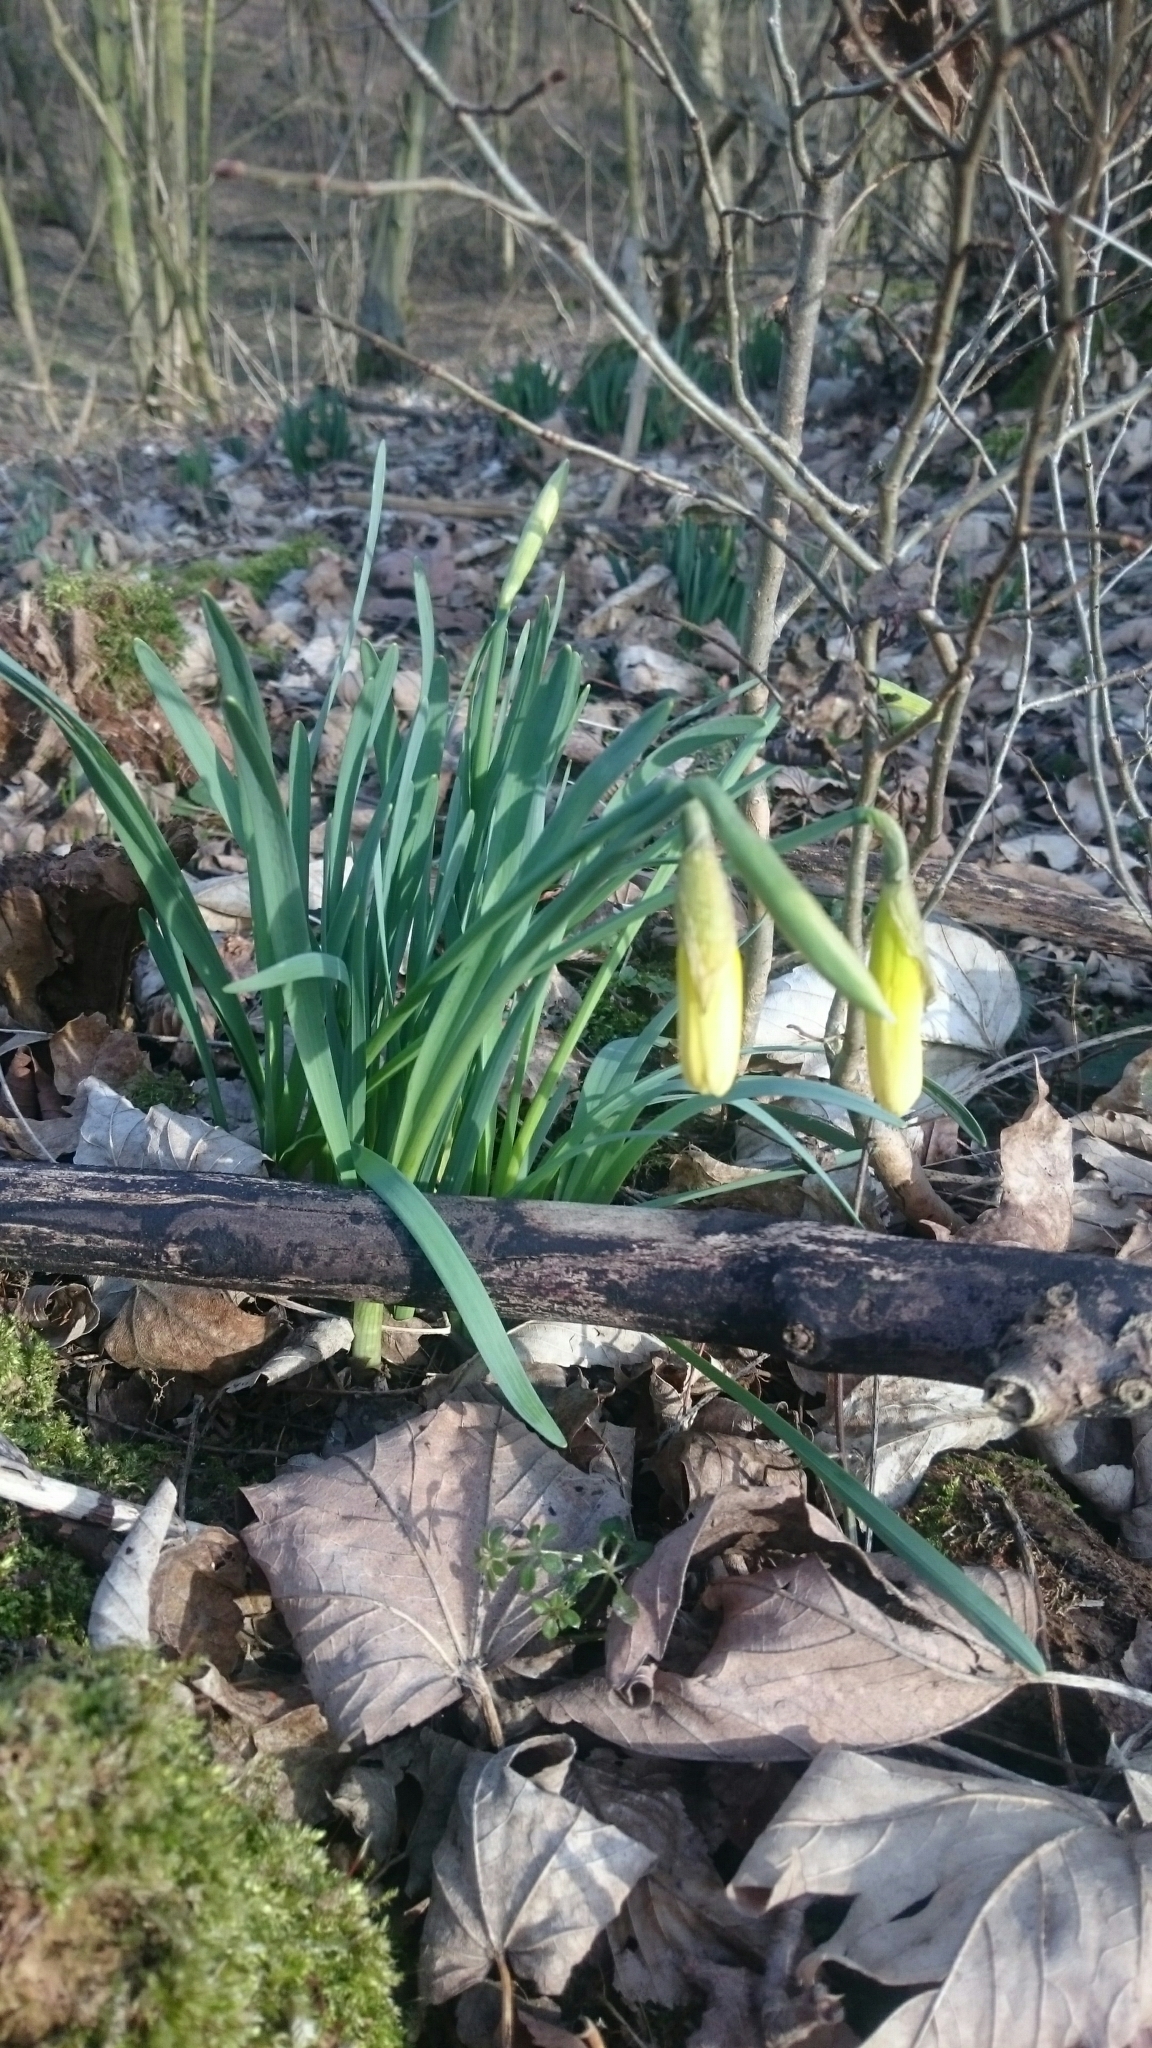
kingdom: Plantae
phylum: Tracheophyta
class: Liliopsida
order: Asparagales
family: Amaryllidaceae
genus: Narcissus
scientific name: Narcissus pseudonarcissus
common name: Daffodil
